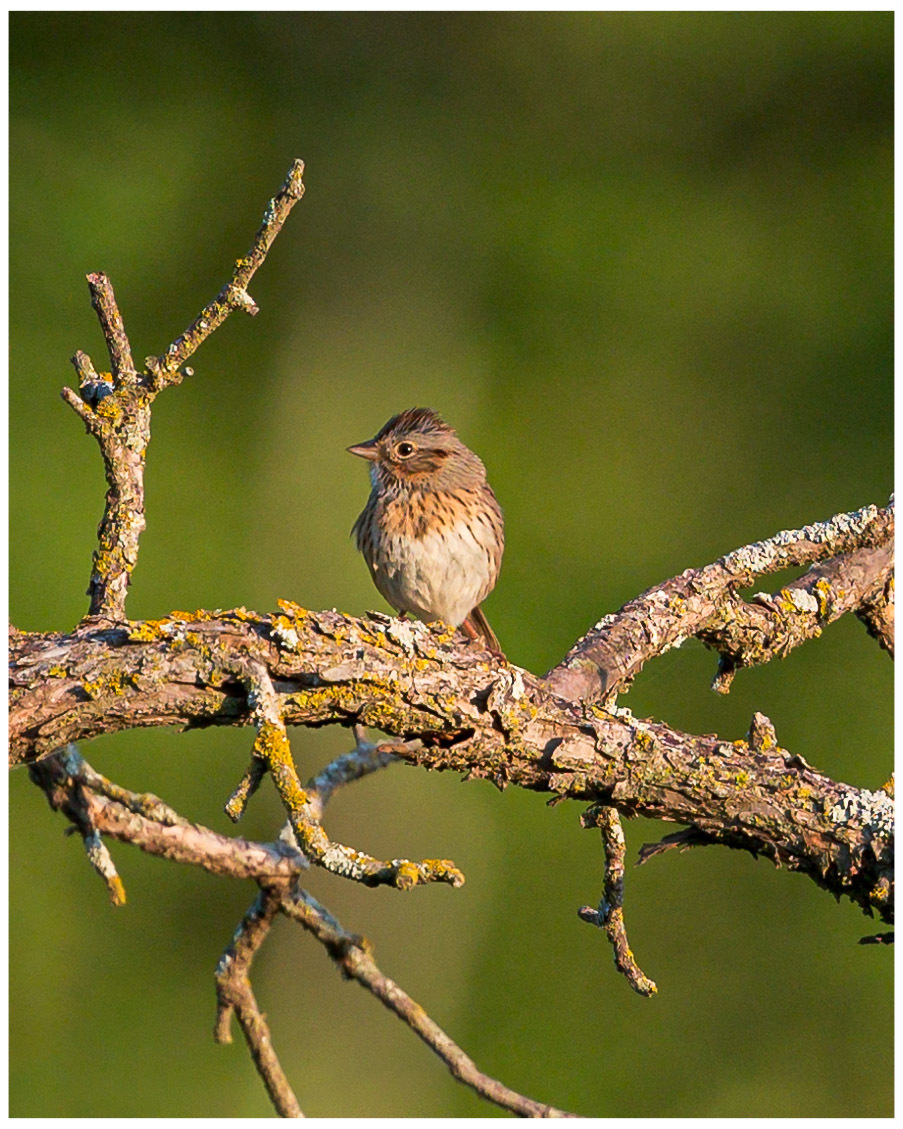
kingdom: Animalia
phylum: Chordata
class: Aves
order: Passeriformes
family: Passerellidae
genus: Melospiza
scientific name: Melospiza lincolnii
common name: Lincoln's sparrow
